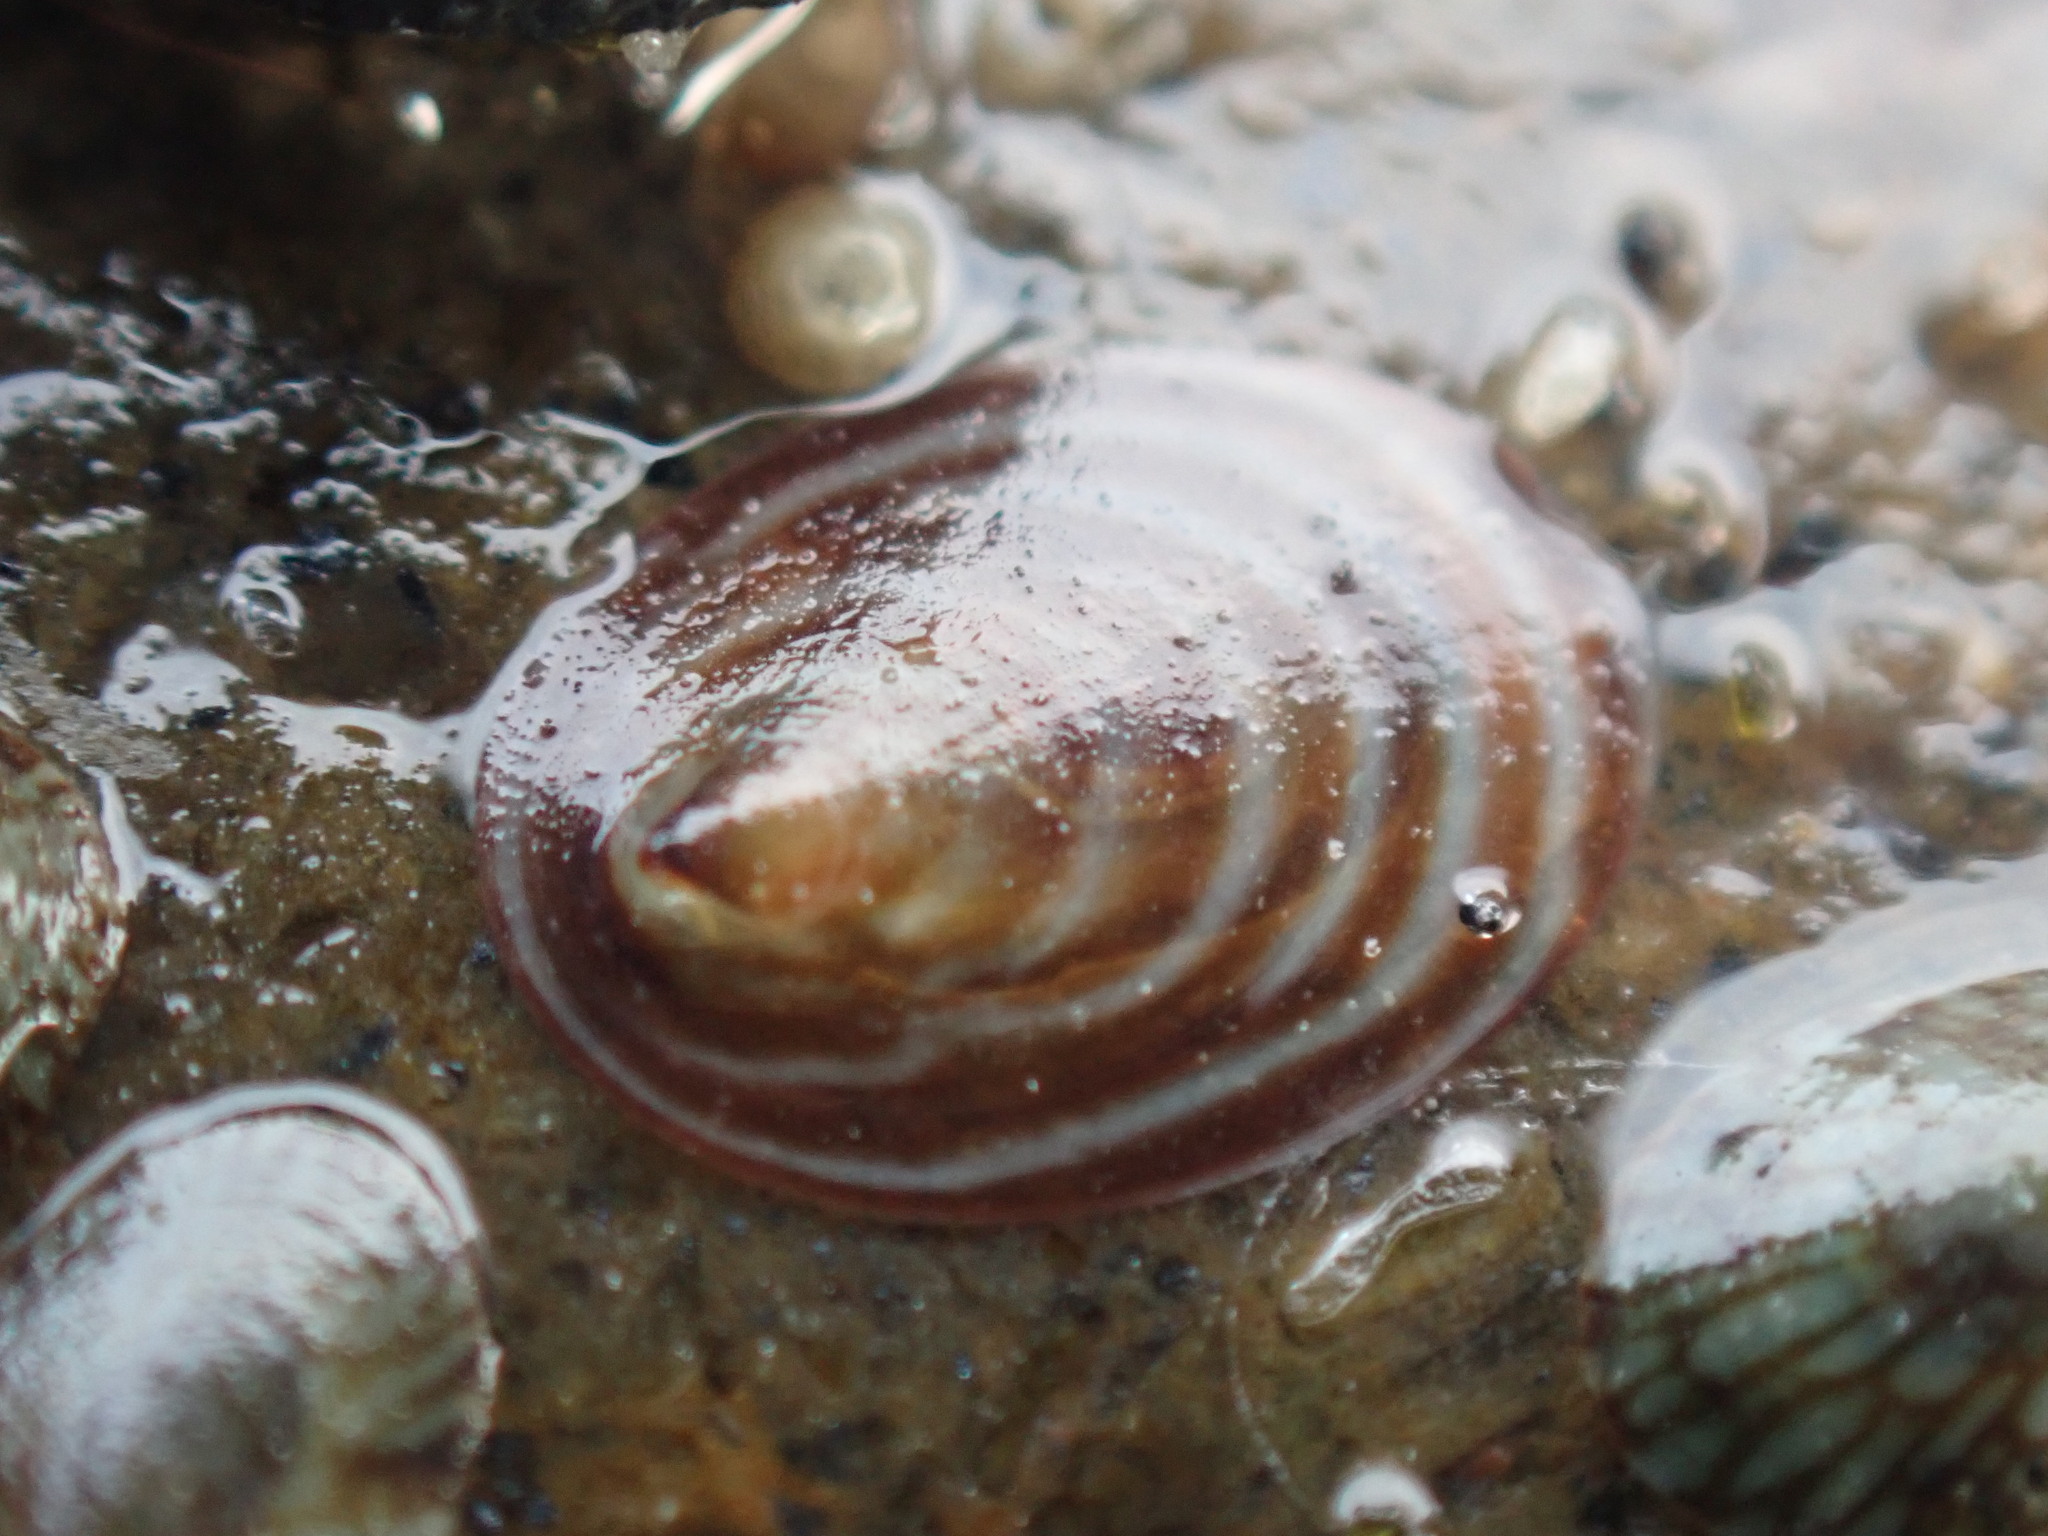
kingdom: Animalia
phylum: Mollusca
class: Gastropoda
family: Lottiidae
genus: Atalacmea
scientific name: Atalacmea fragilis
